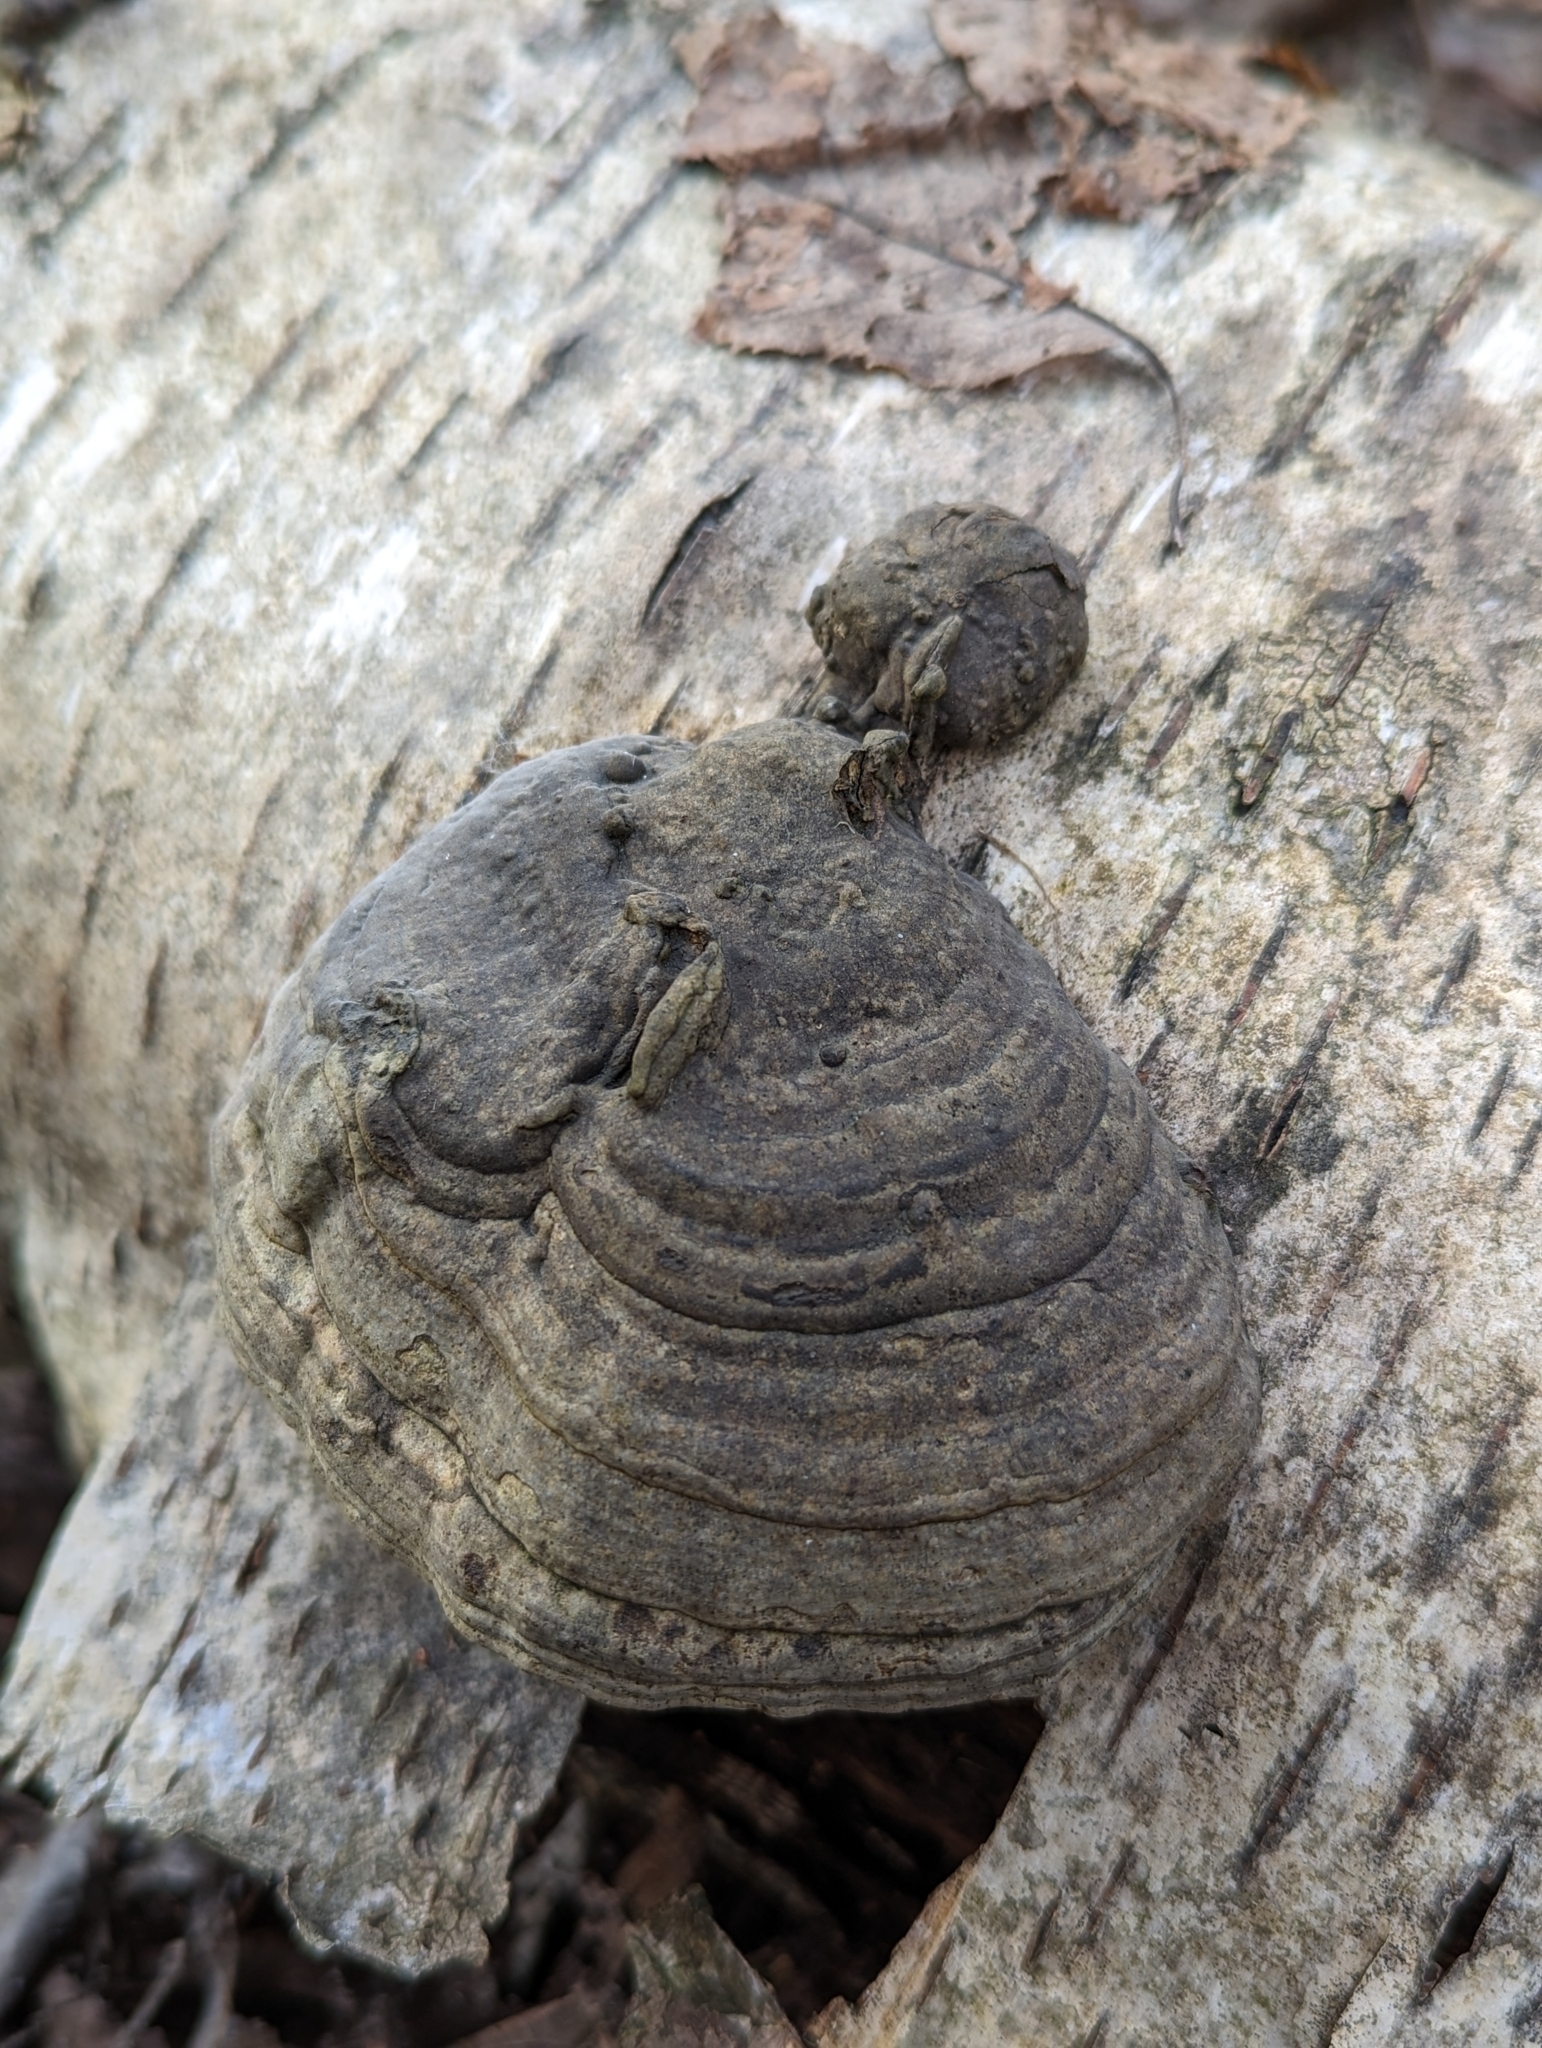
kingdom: Fungi
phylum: Basidiomycota
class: Agaricomycetes
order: Polyporales
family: Polyporaceae
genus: Fomes
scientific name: Fomes fomentarius
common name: Hoof fungus
